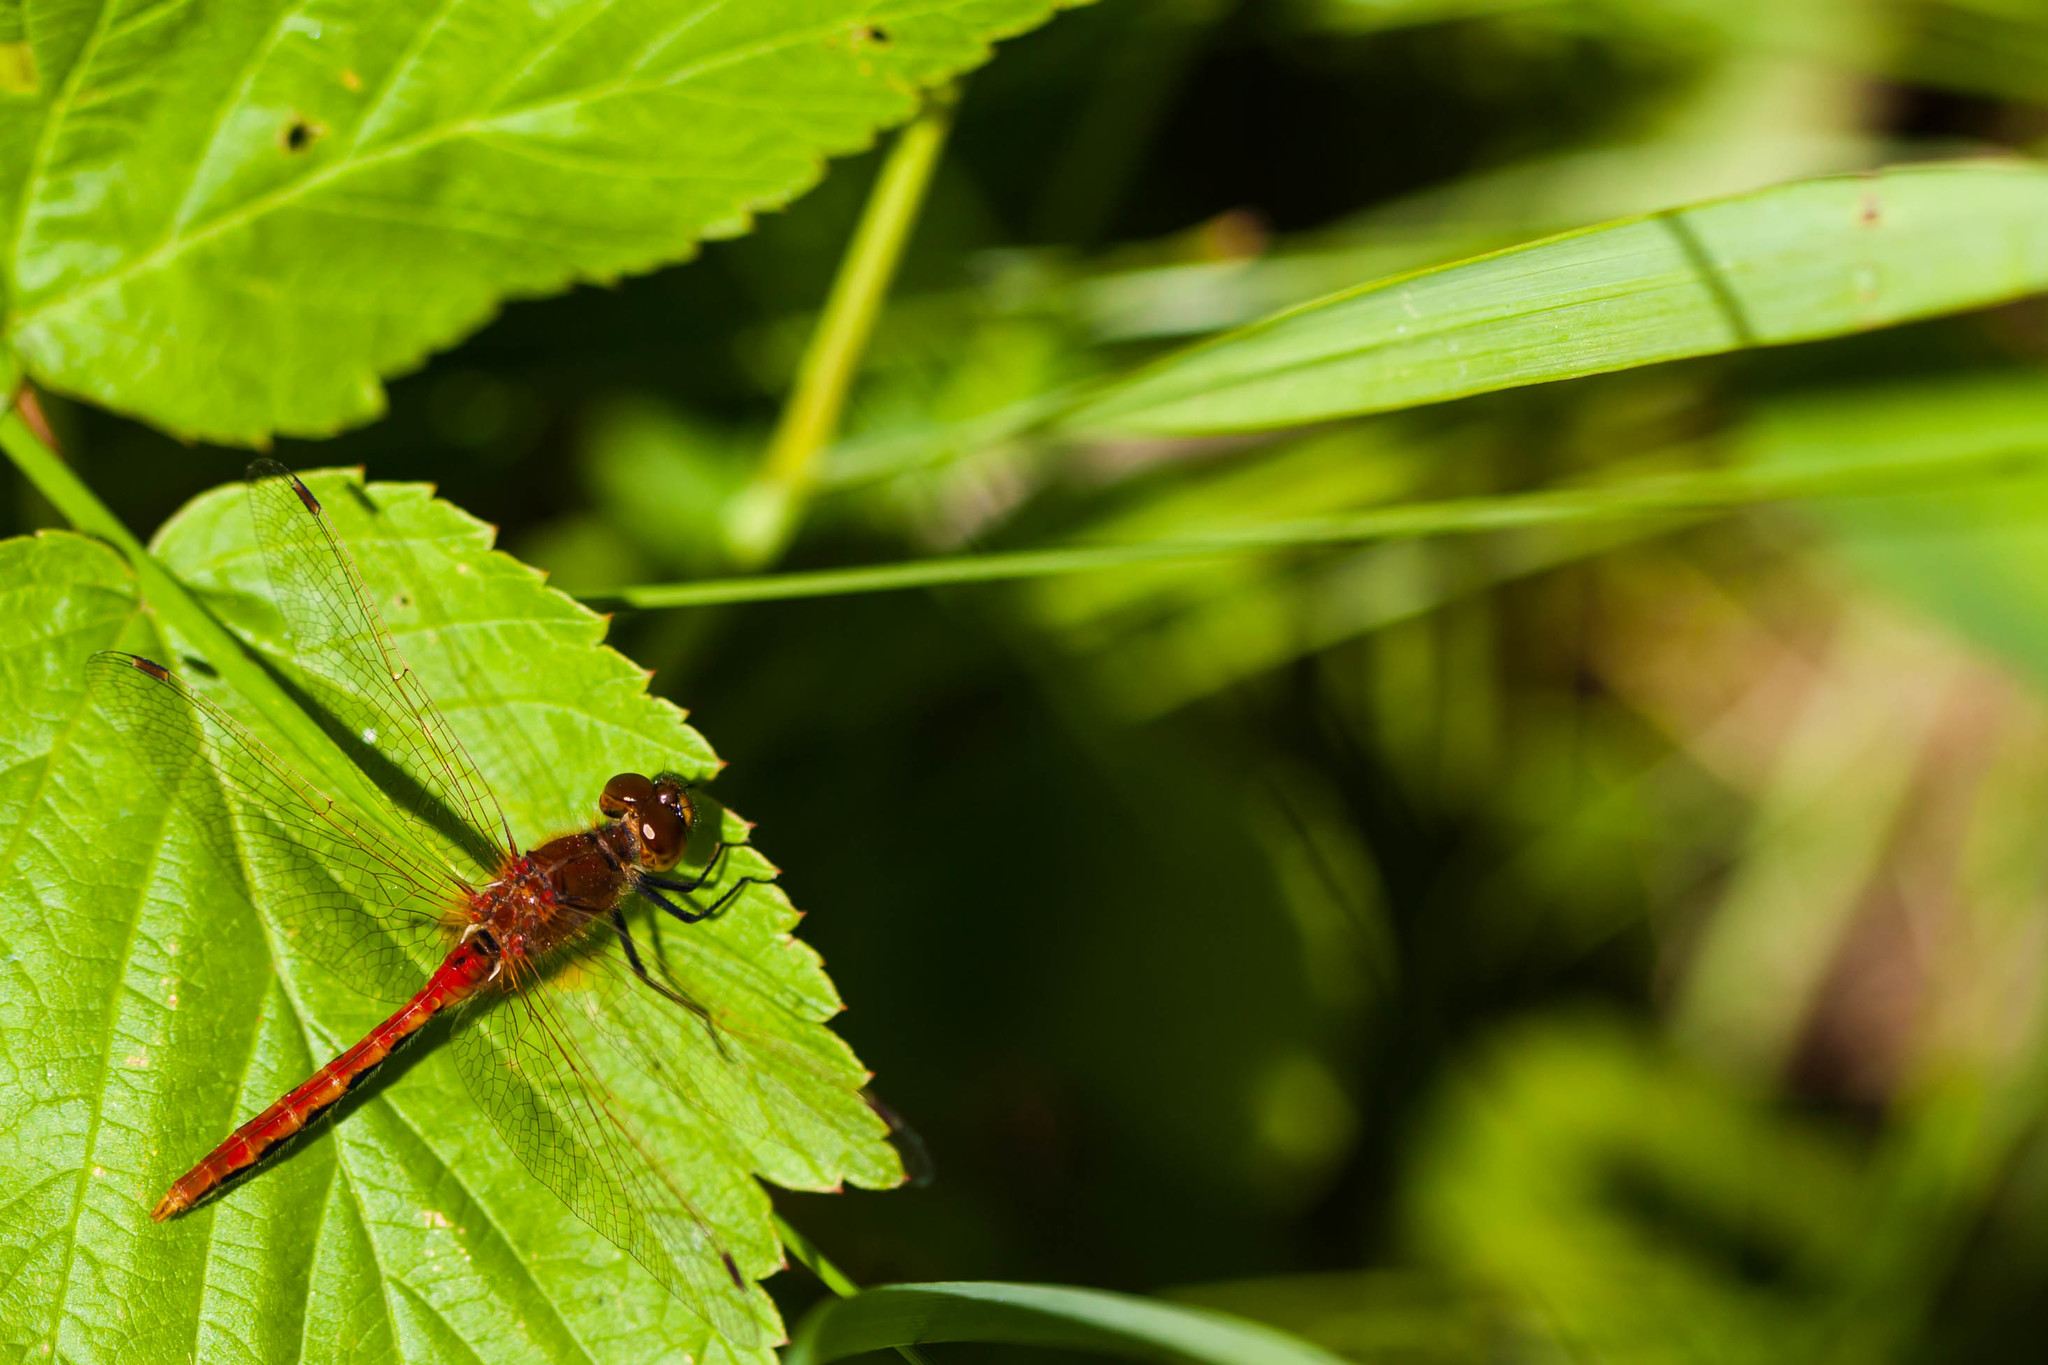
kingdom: Animalia
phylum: Arthropoda
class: Insecta
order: Odonata
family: Libellulidae
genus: Sympetrum
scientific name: Sympetrum internum
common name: Cherry-faced meadowhawk
